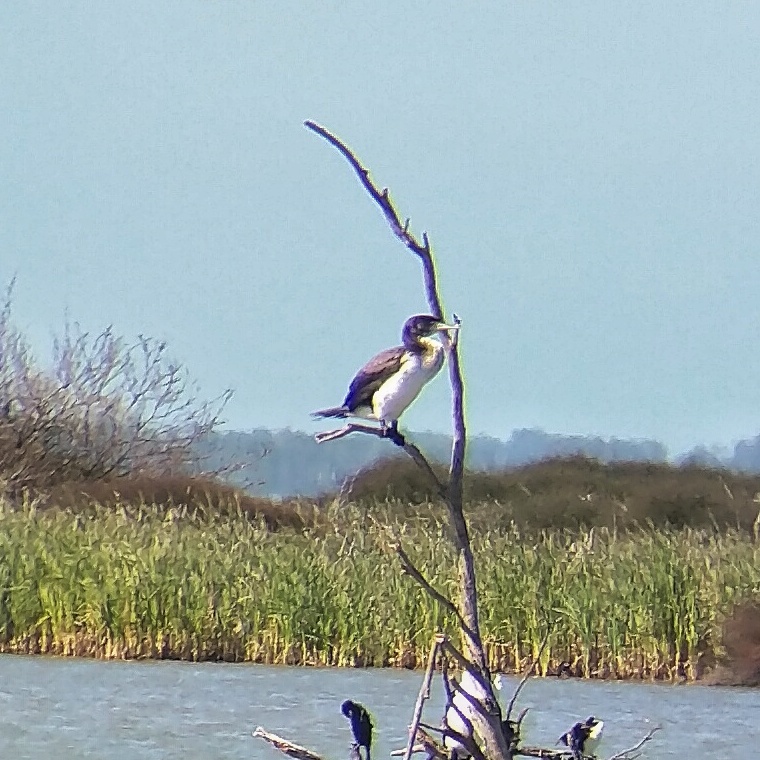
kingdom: Animalia
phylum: Chordata
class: Aves
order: Suliformes
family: Phalacrocoracidae
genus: Phalacrocorax
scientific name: Phalacrocorax varius
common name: Pied cormorant
